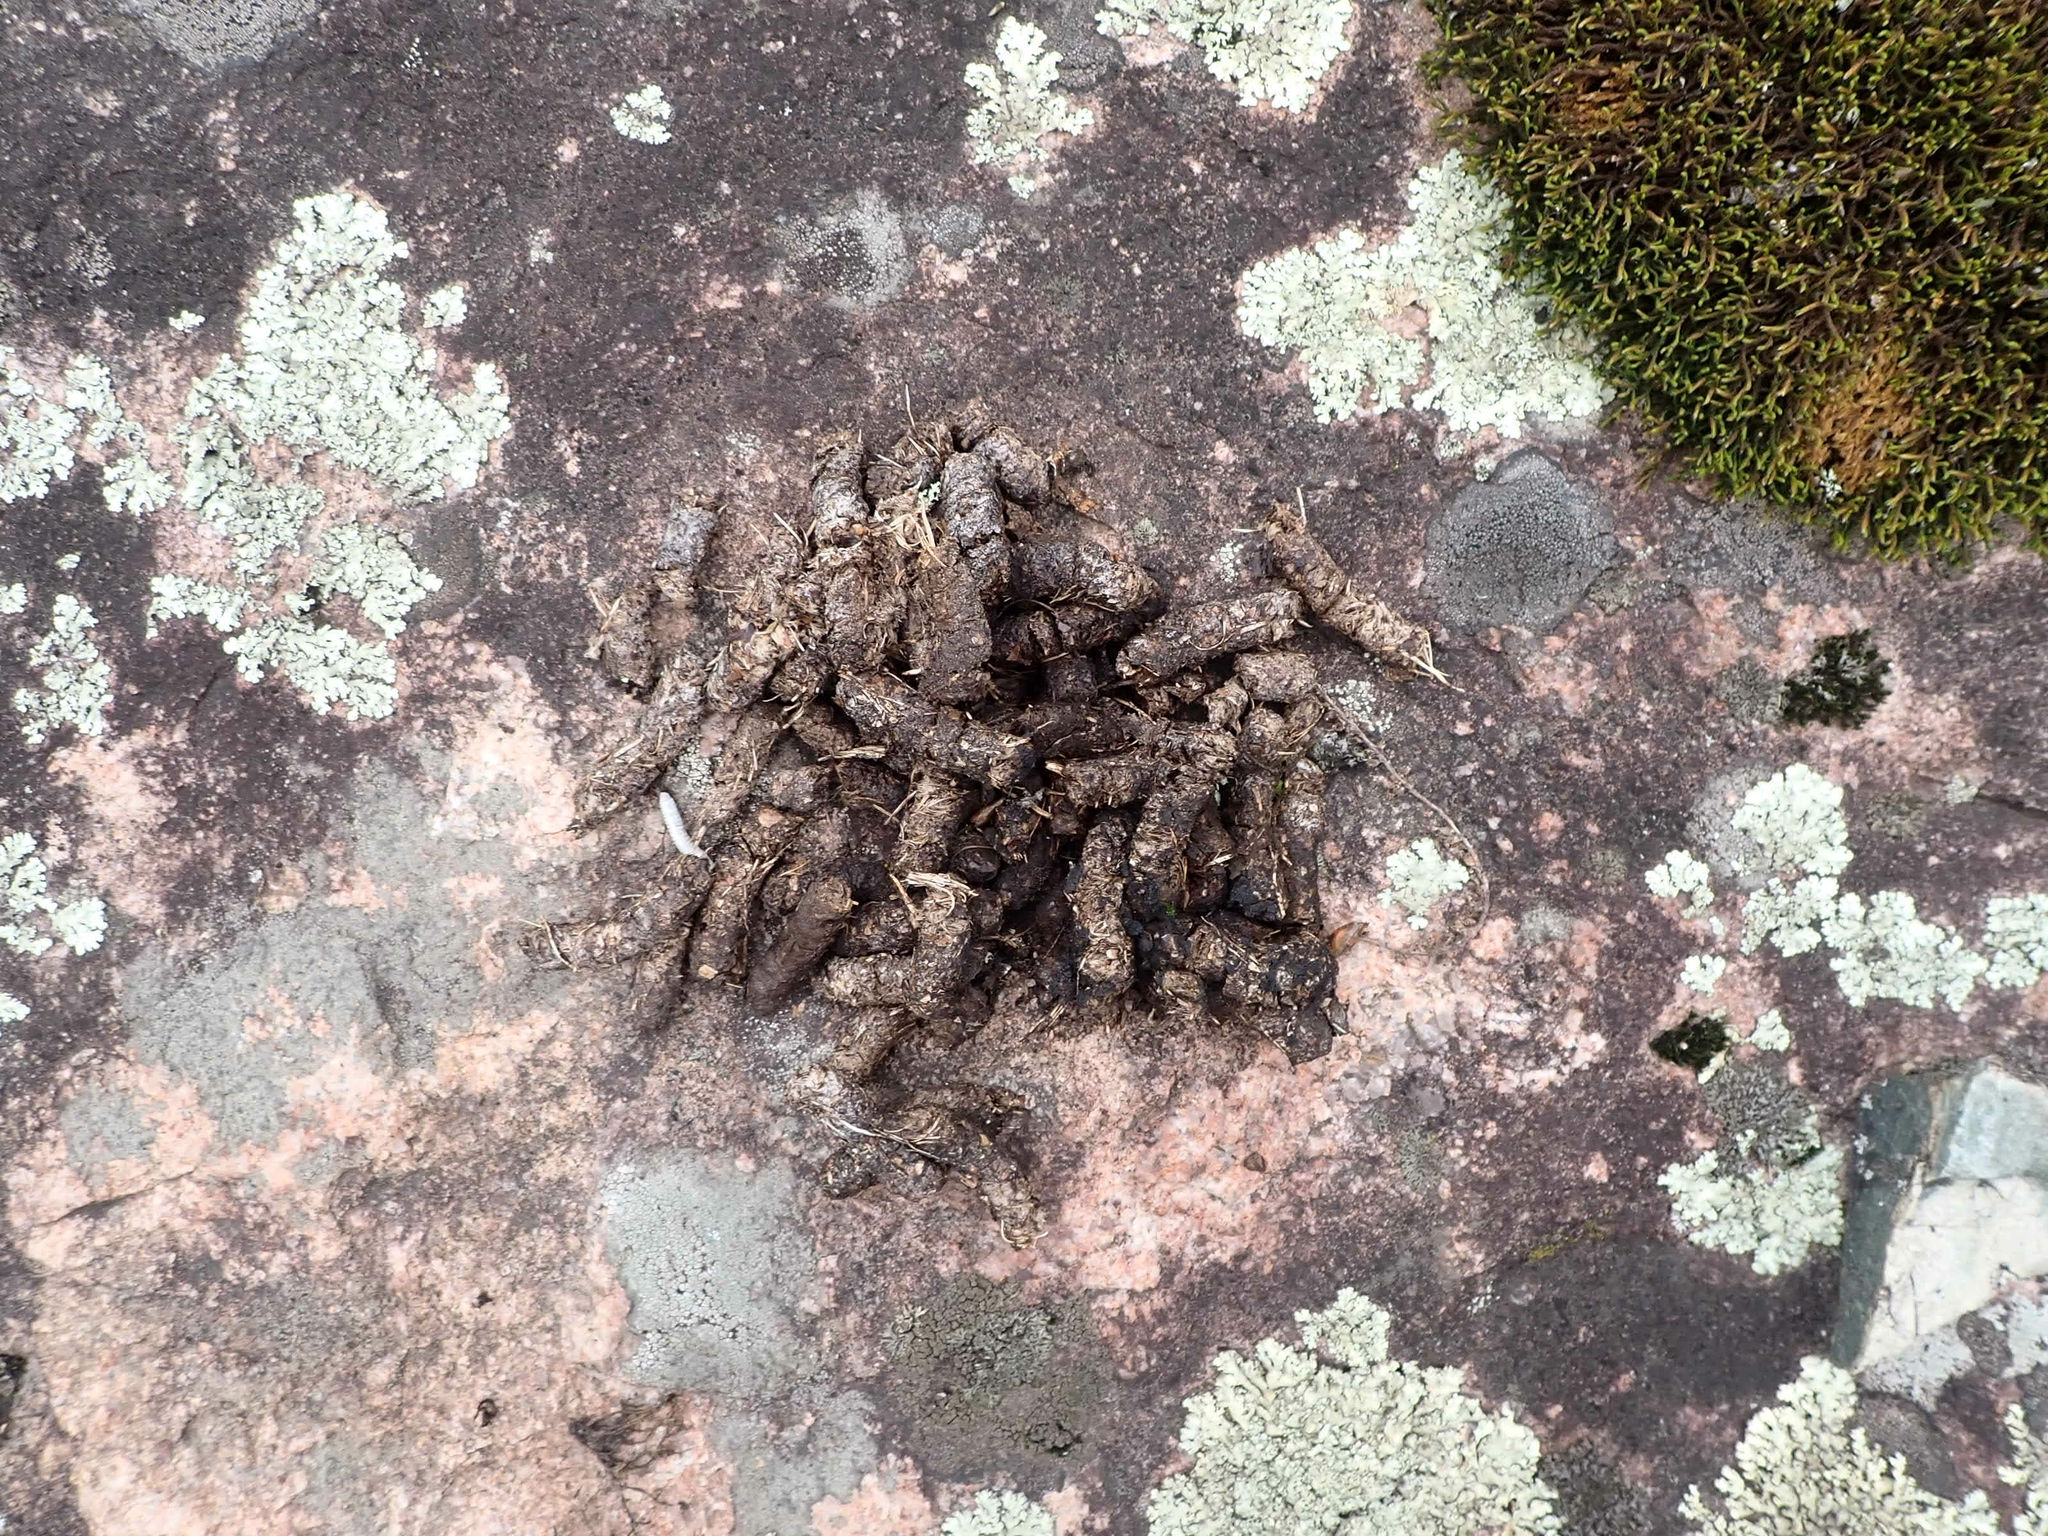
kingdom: Animalia
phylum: Chordata
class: Aves
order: Galliformes
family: Phasianidae
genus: Bonasa
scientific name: Bonasa umbellus
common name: Ruffed grouse
